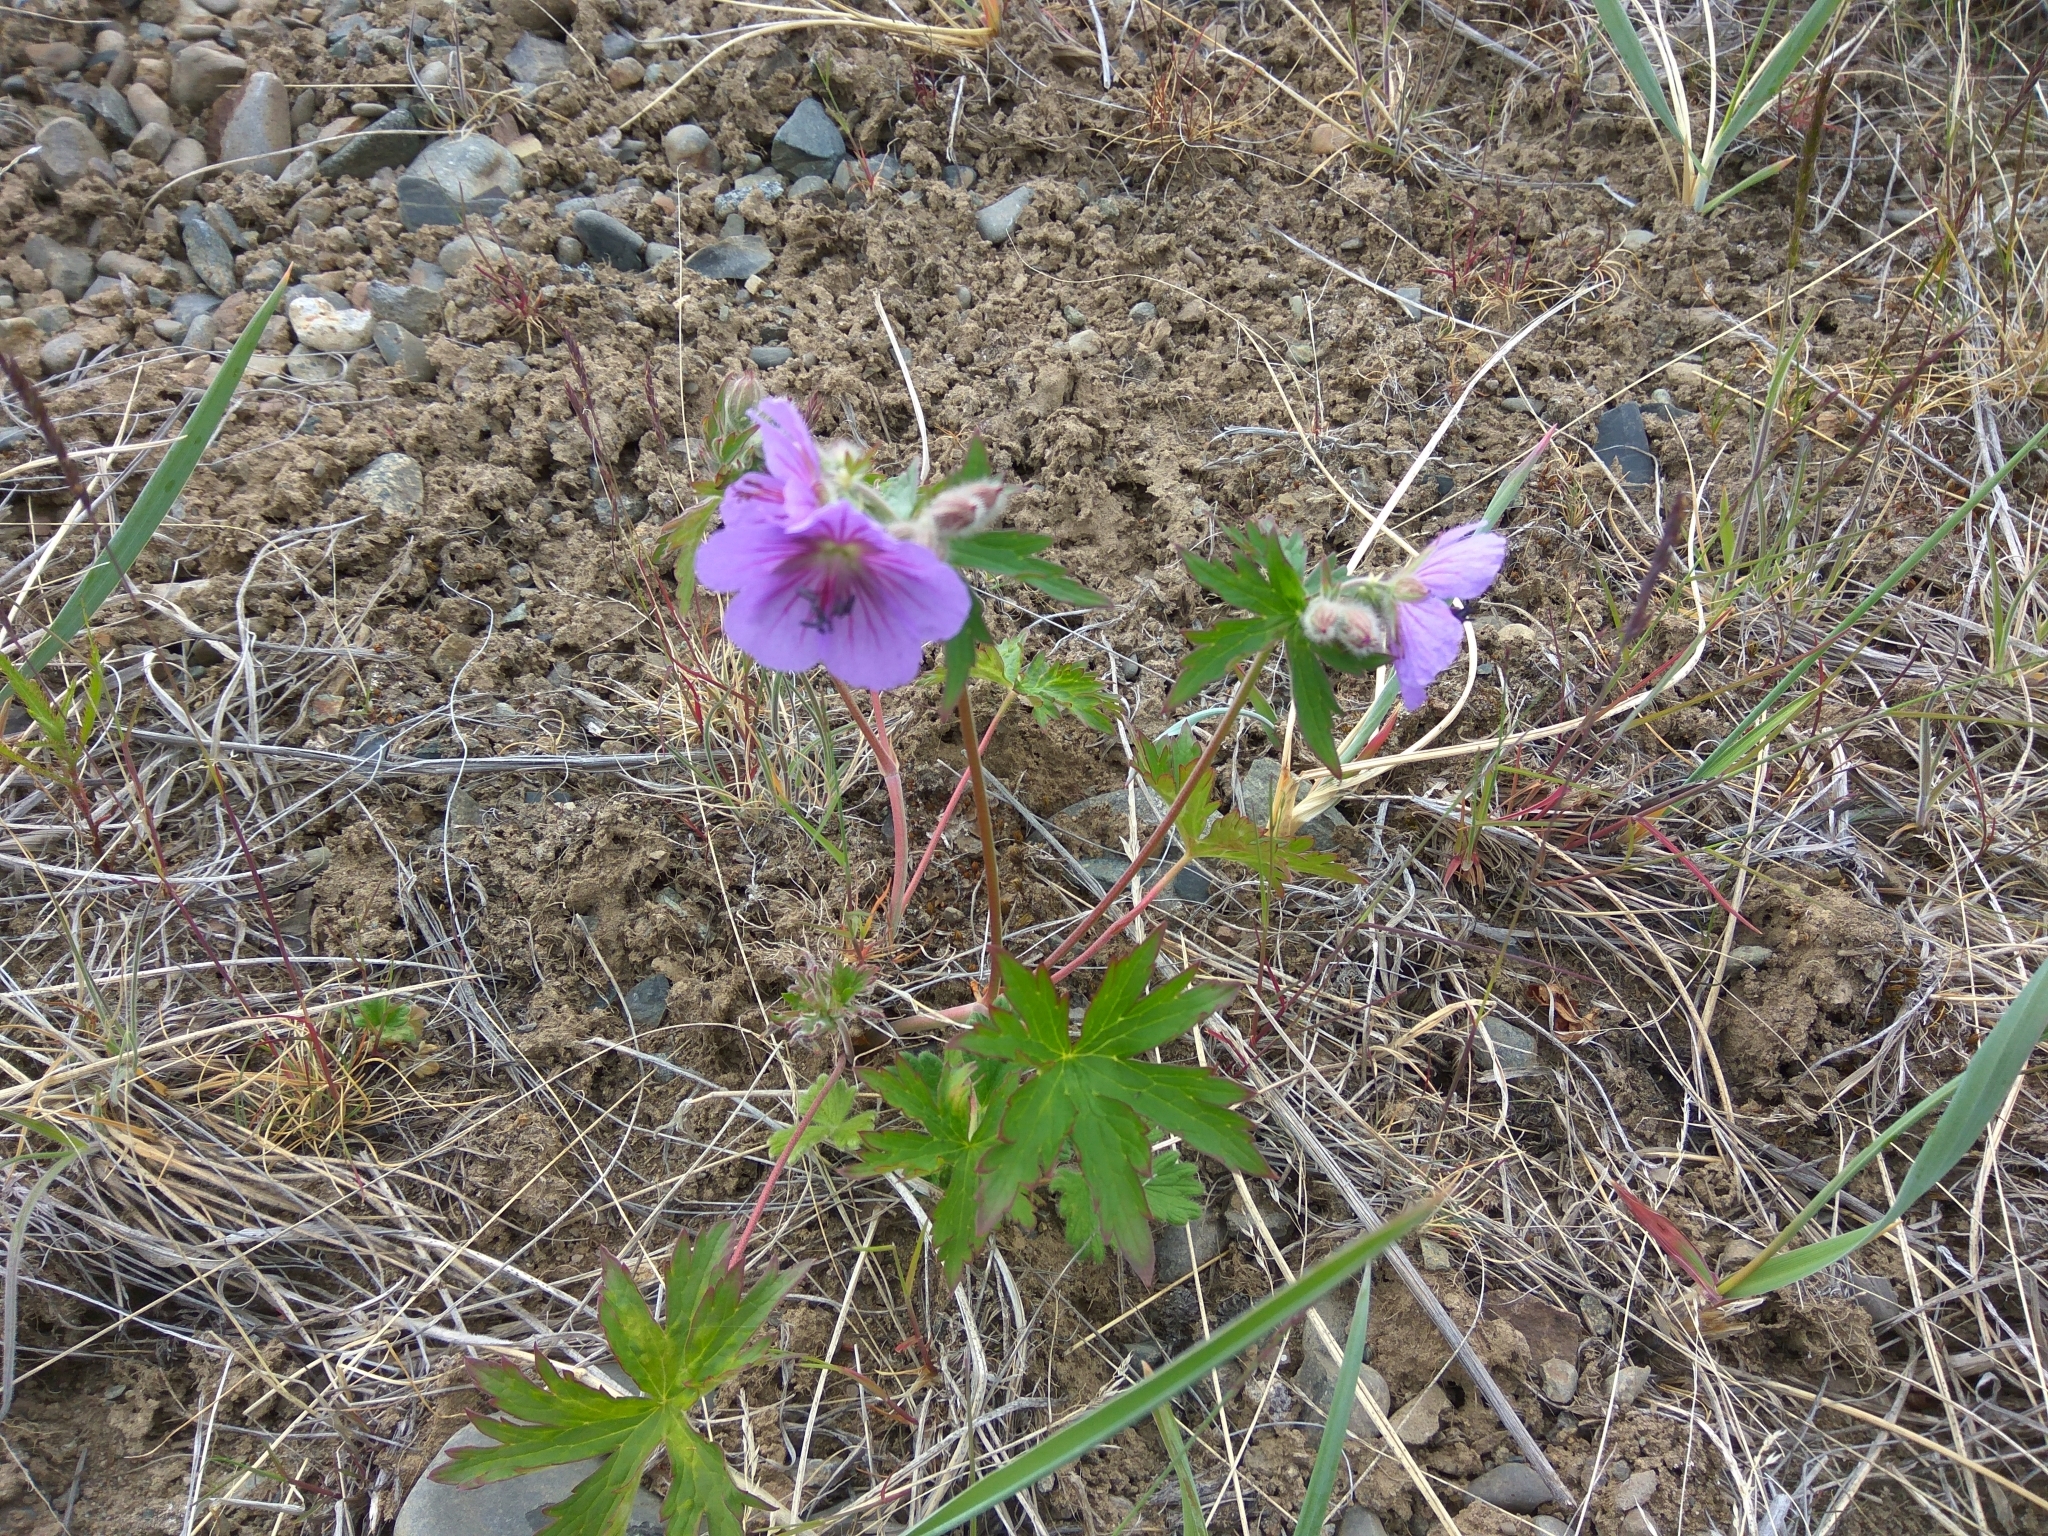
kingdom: Plantae
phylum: Tracheophyta
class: Magnoliopsida
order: Geraniales
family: Geraniaceae
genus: Geranium
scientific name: Geranium erianthum
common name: Northern crane's-bill
